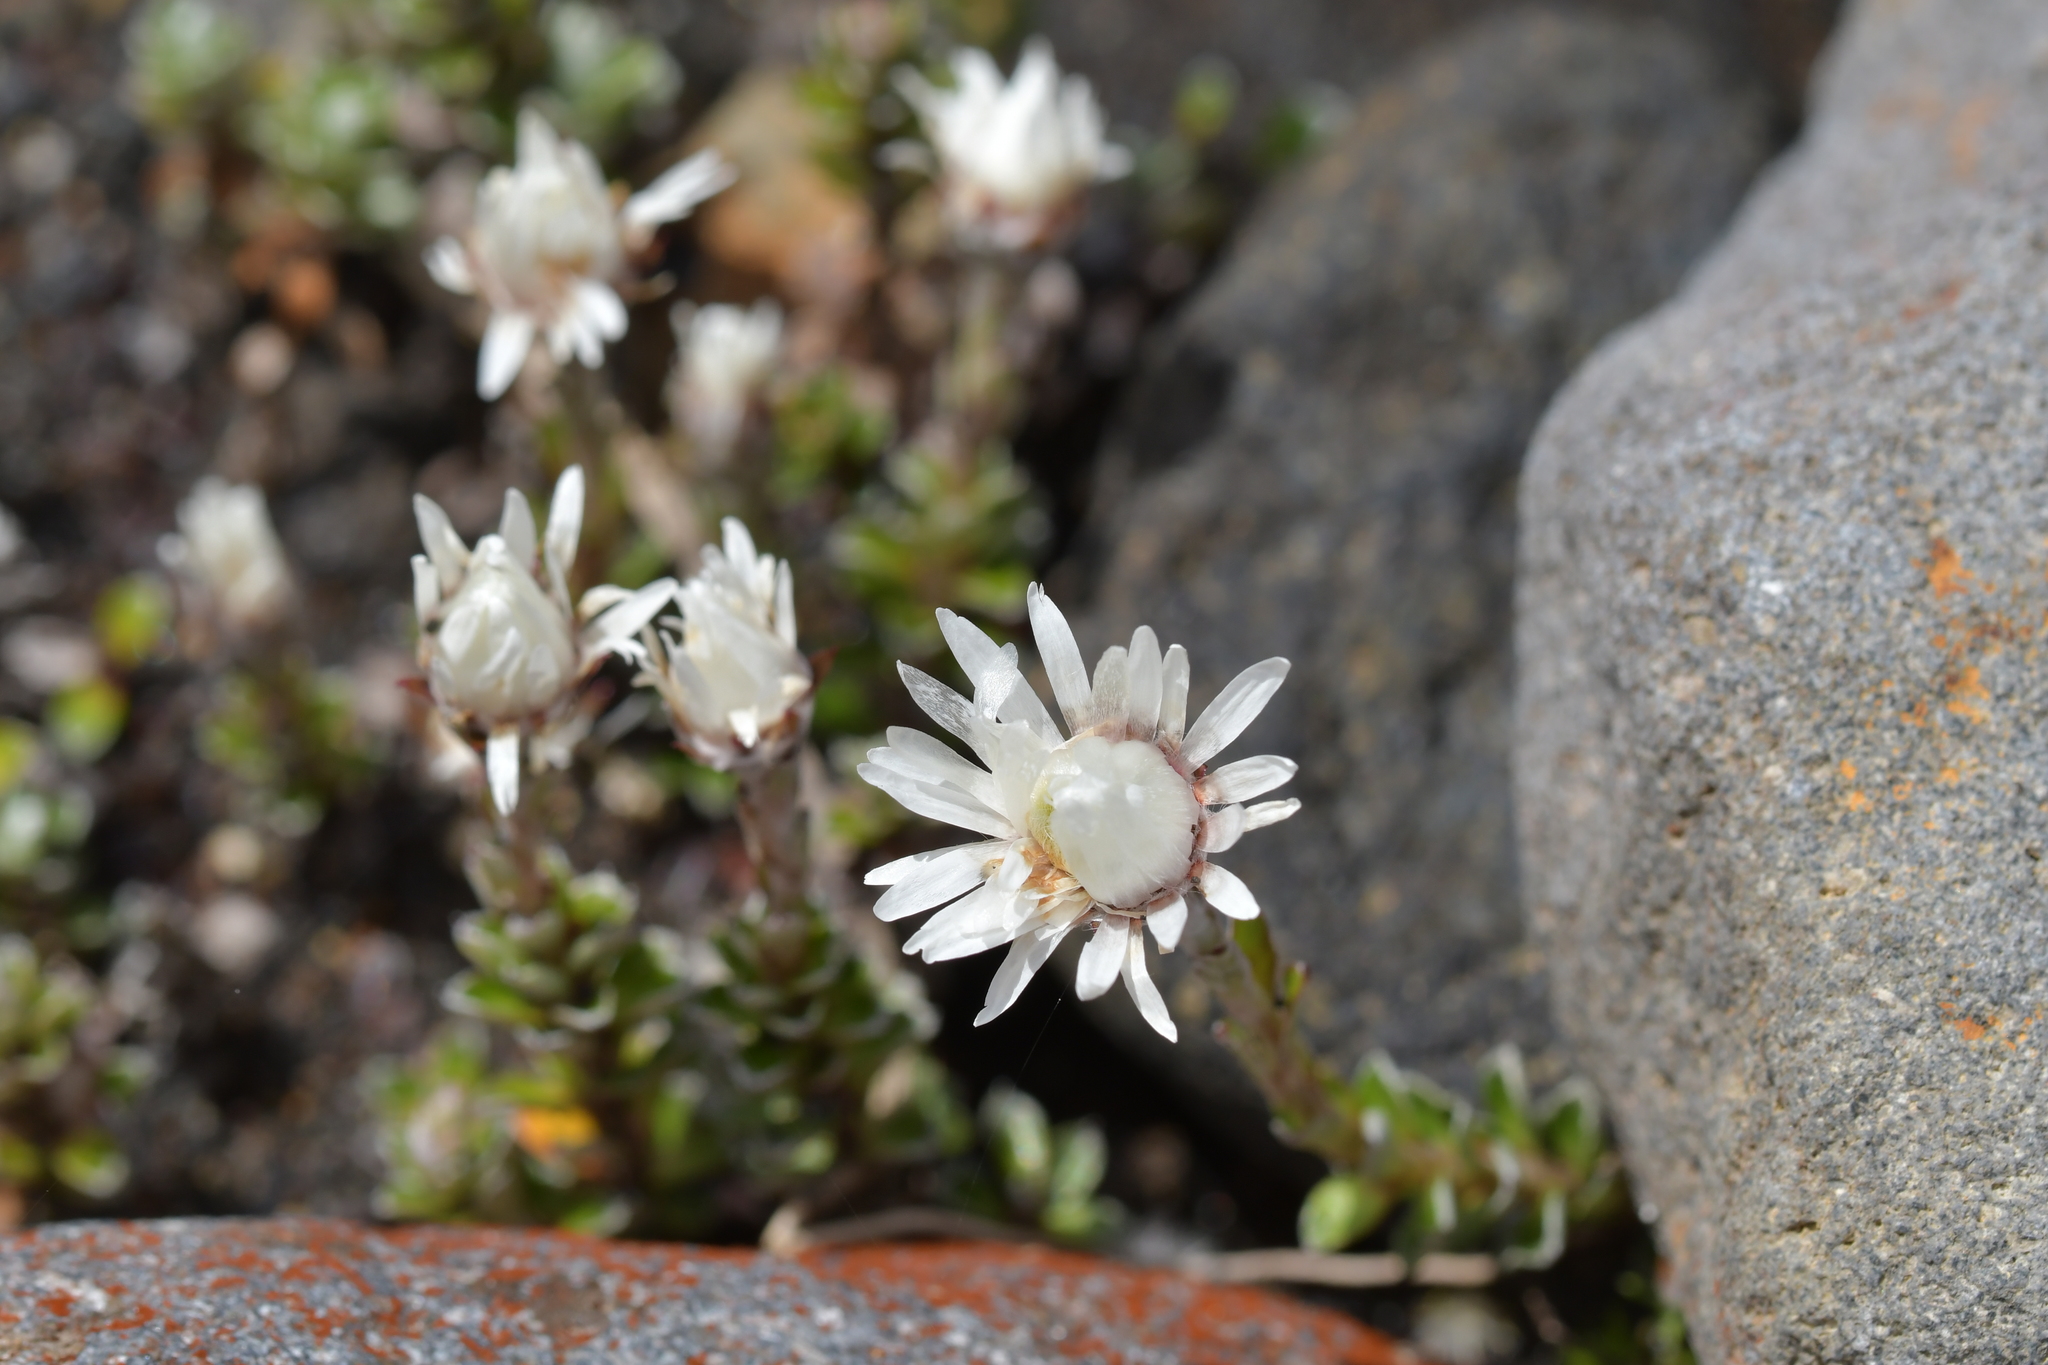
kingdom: Plantae
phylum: Tracheophyta
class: Magnoliopsida
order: Asterales
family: Asteraceae
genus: Anaphalioides
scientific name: Anaphalioides alpina
